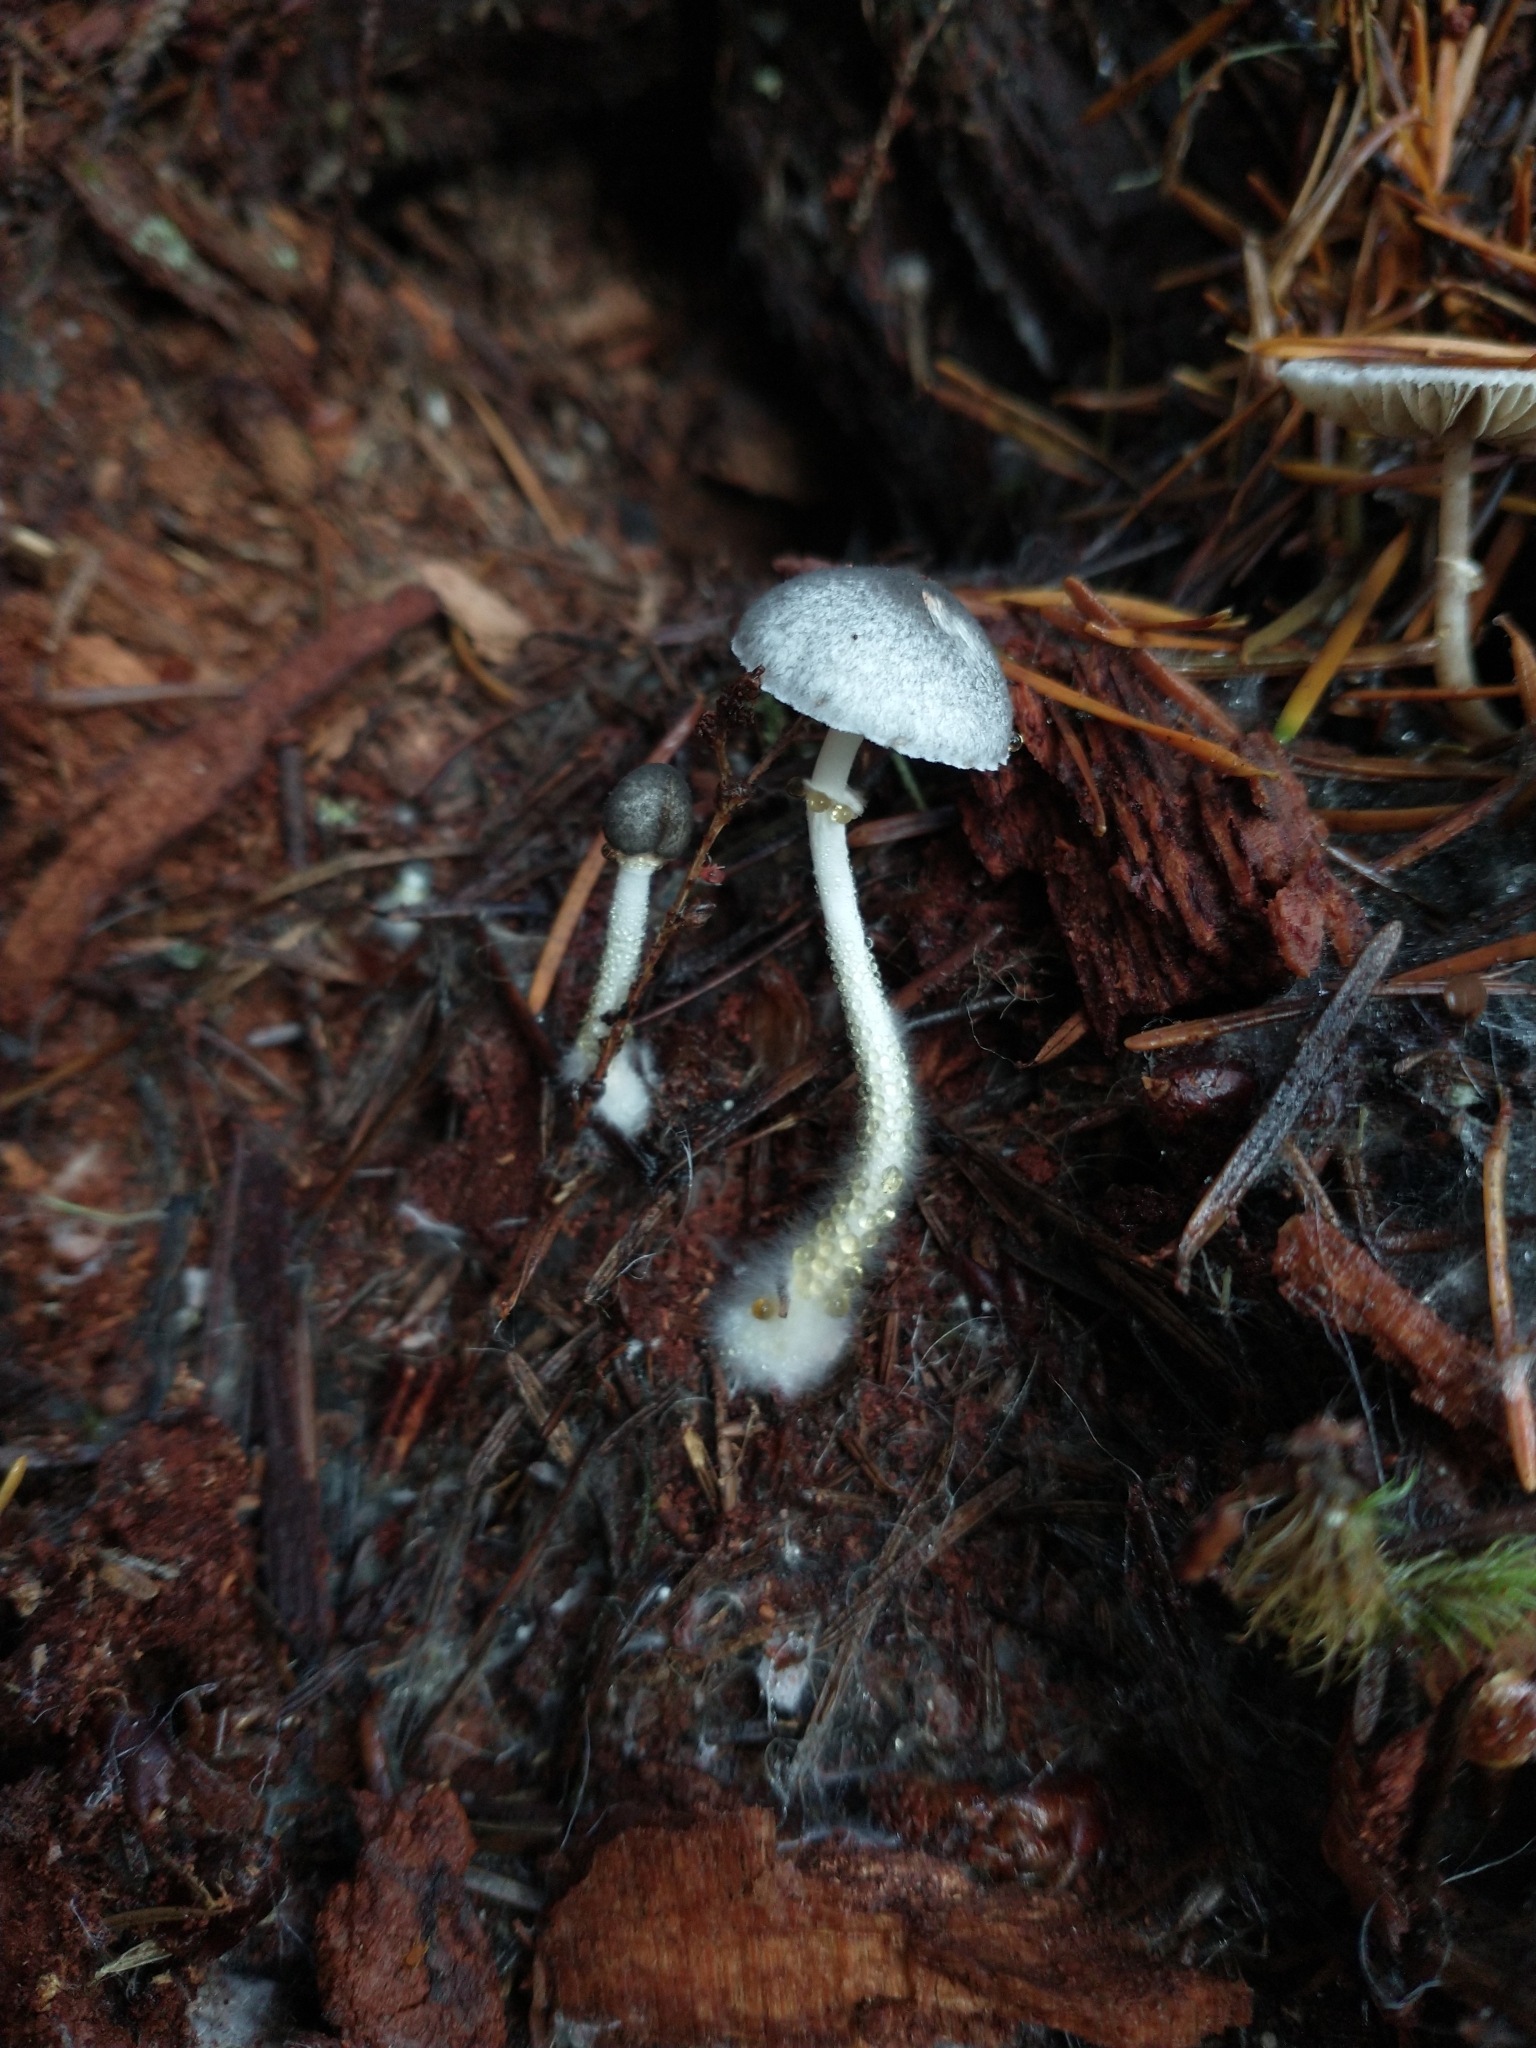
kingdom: Fungi
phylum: Basidiomycota
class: Agaricomycetes
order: Agaricales
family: Agaricaceae
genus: Lepiota
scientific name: Lepiota atrodisca
